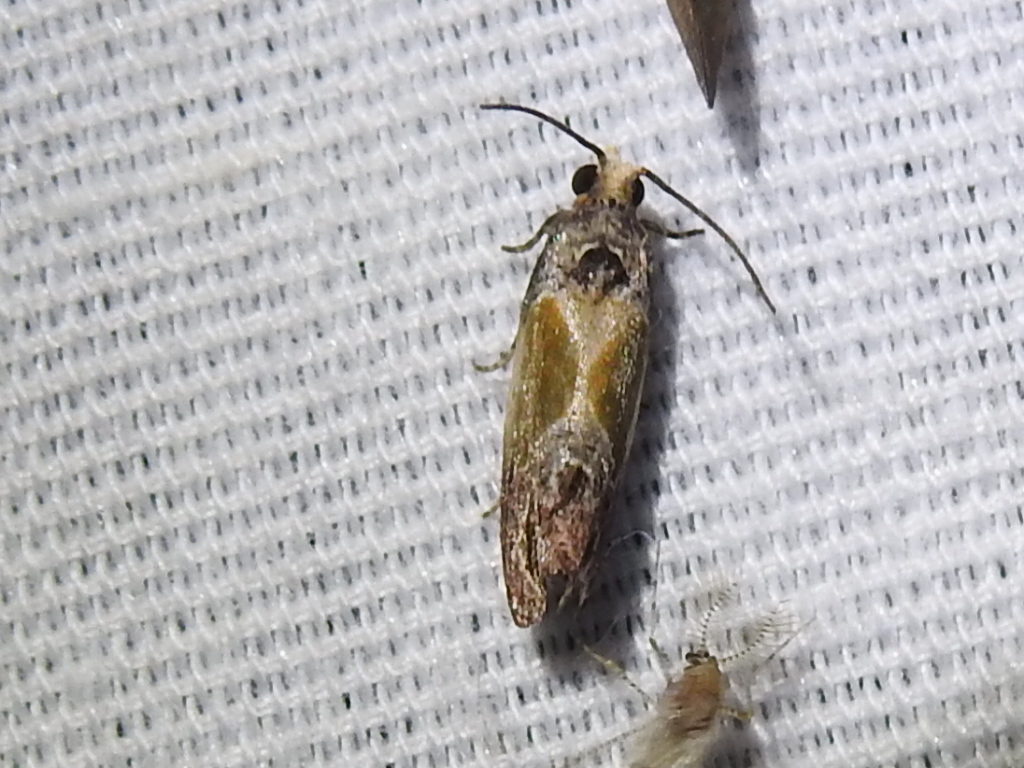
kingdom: Animalia
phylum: Arthropoda
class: Insecta
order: Lepidoptera
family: Tortricidae
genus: Eumarozia
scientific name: Eumarozia malachitana
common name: Sculptured moth
